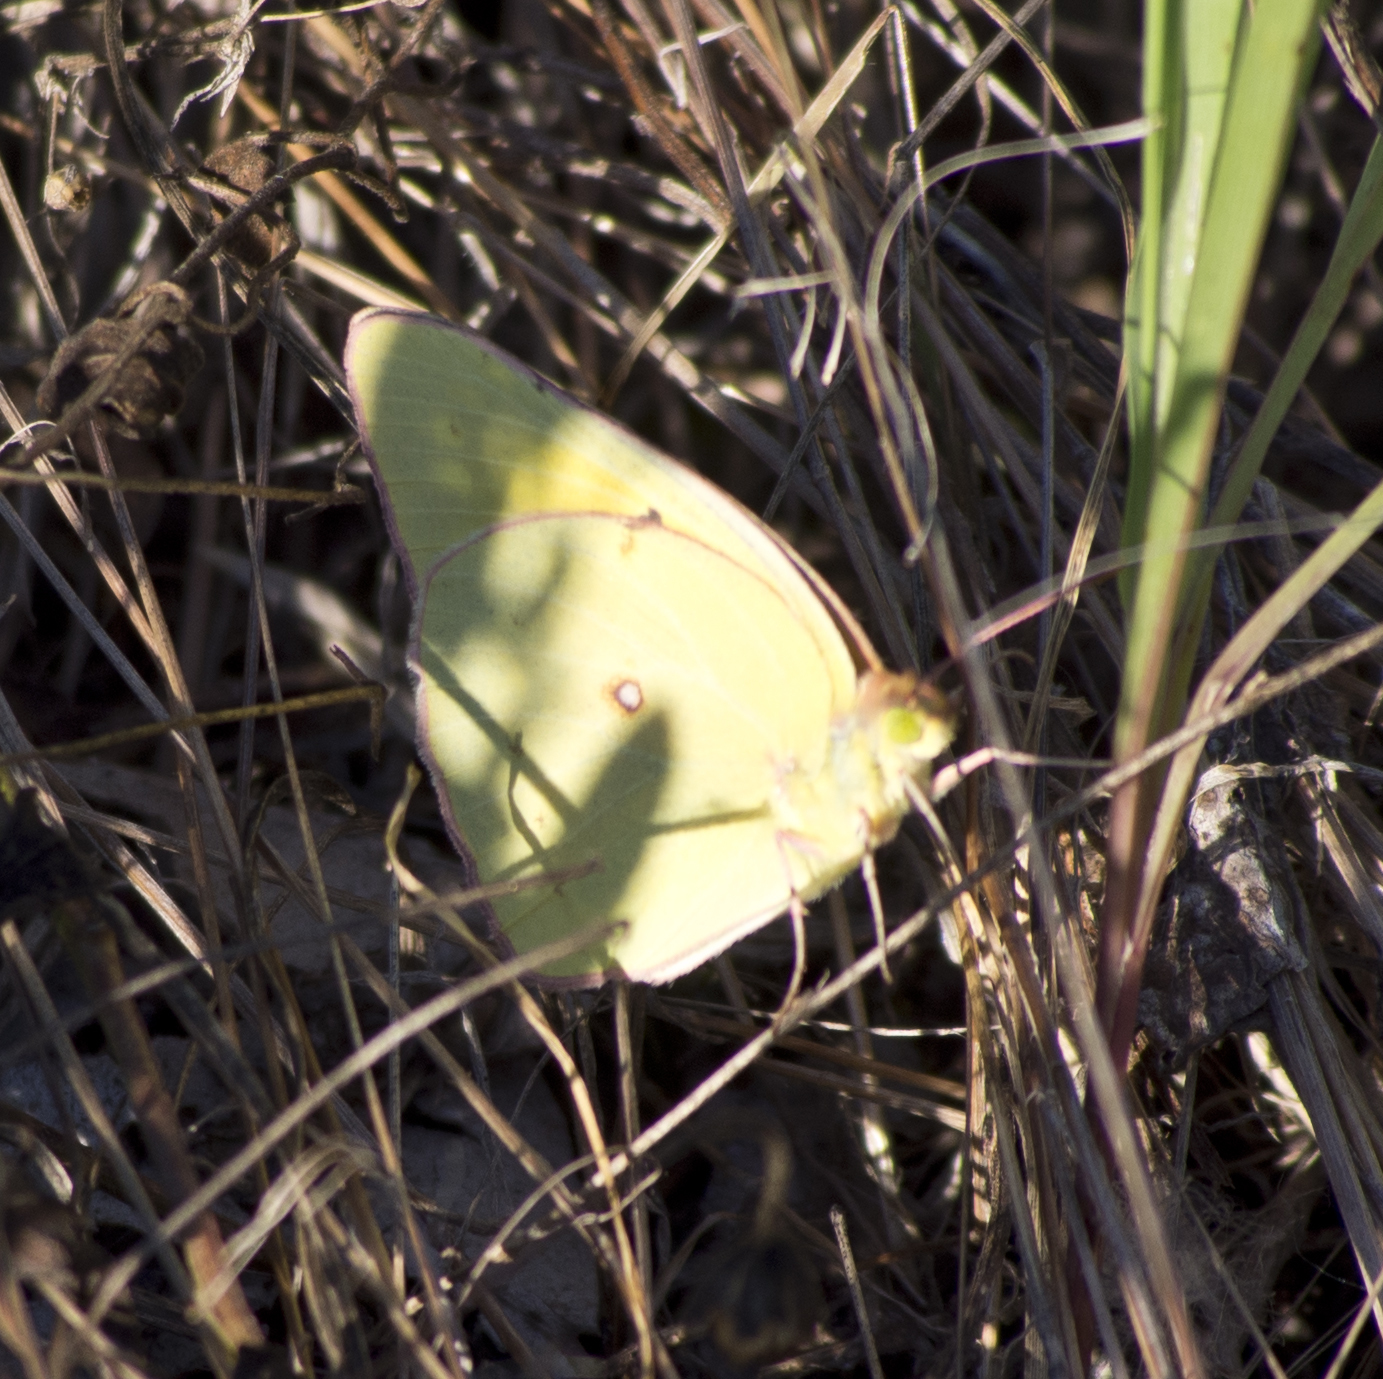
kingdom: Animalia
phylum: Arthropoda
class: Insecta
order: Lepidoptera
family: Pieridae
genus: Colias
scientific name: Colias eurytheme
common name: Alfalfa butterfly
